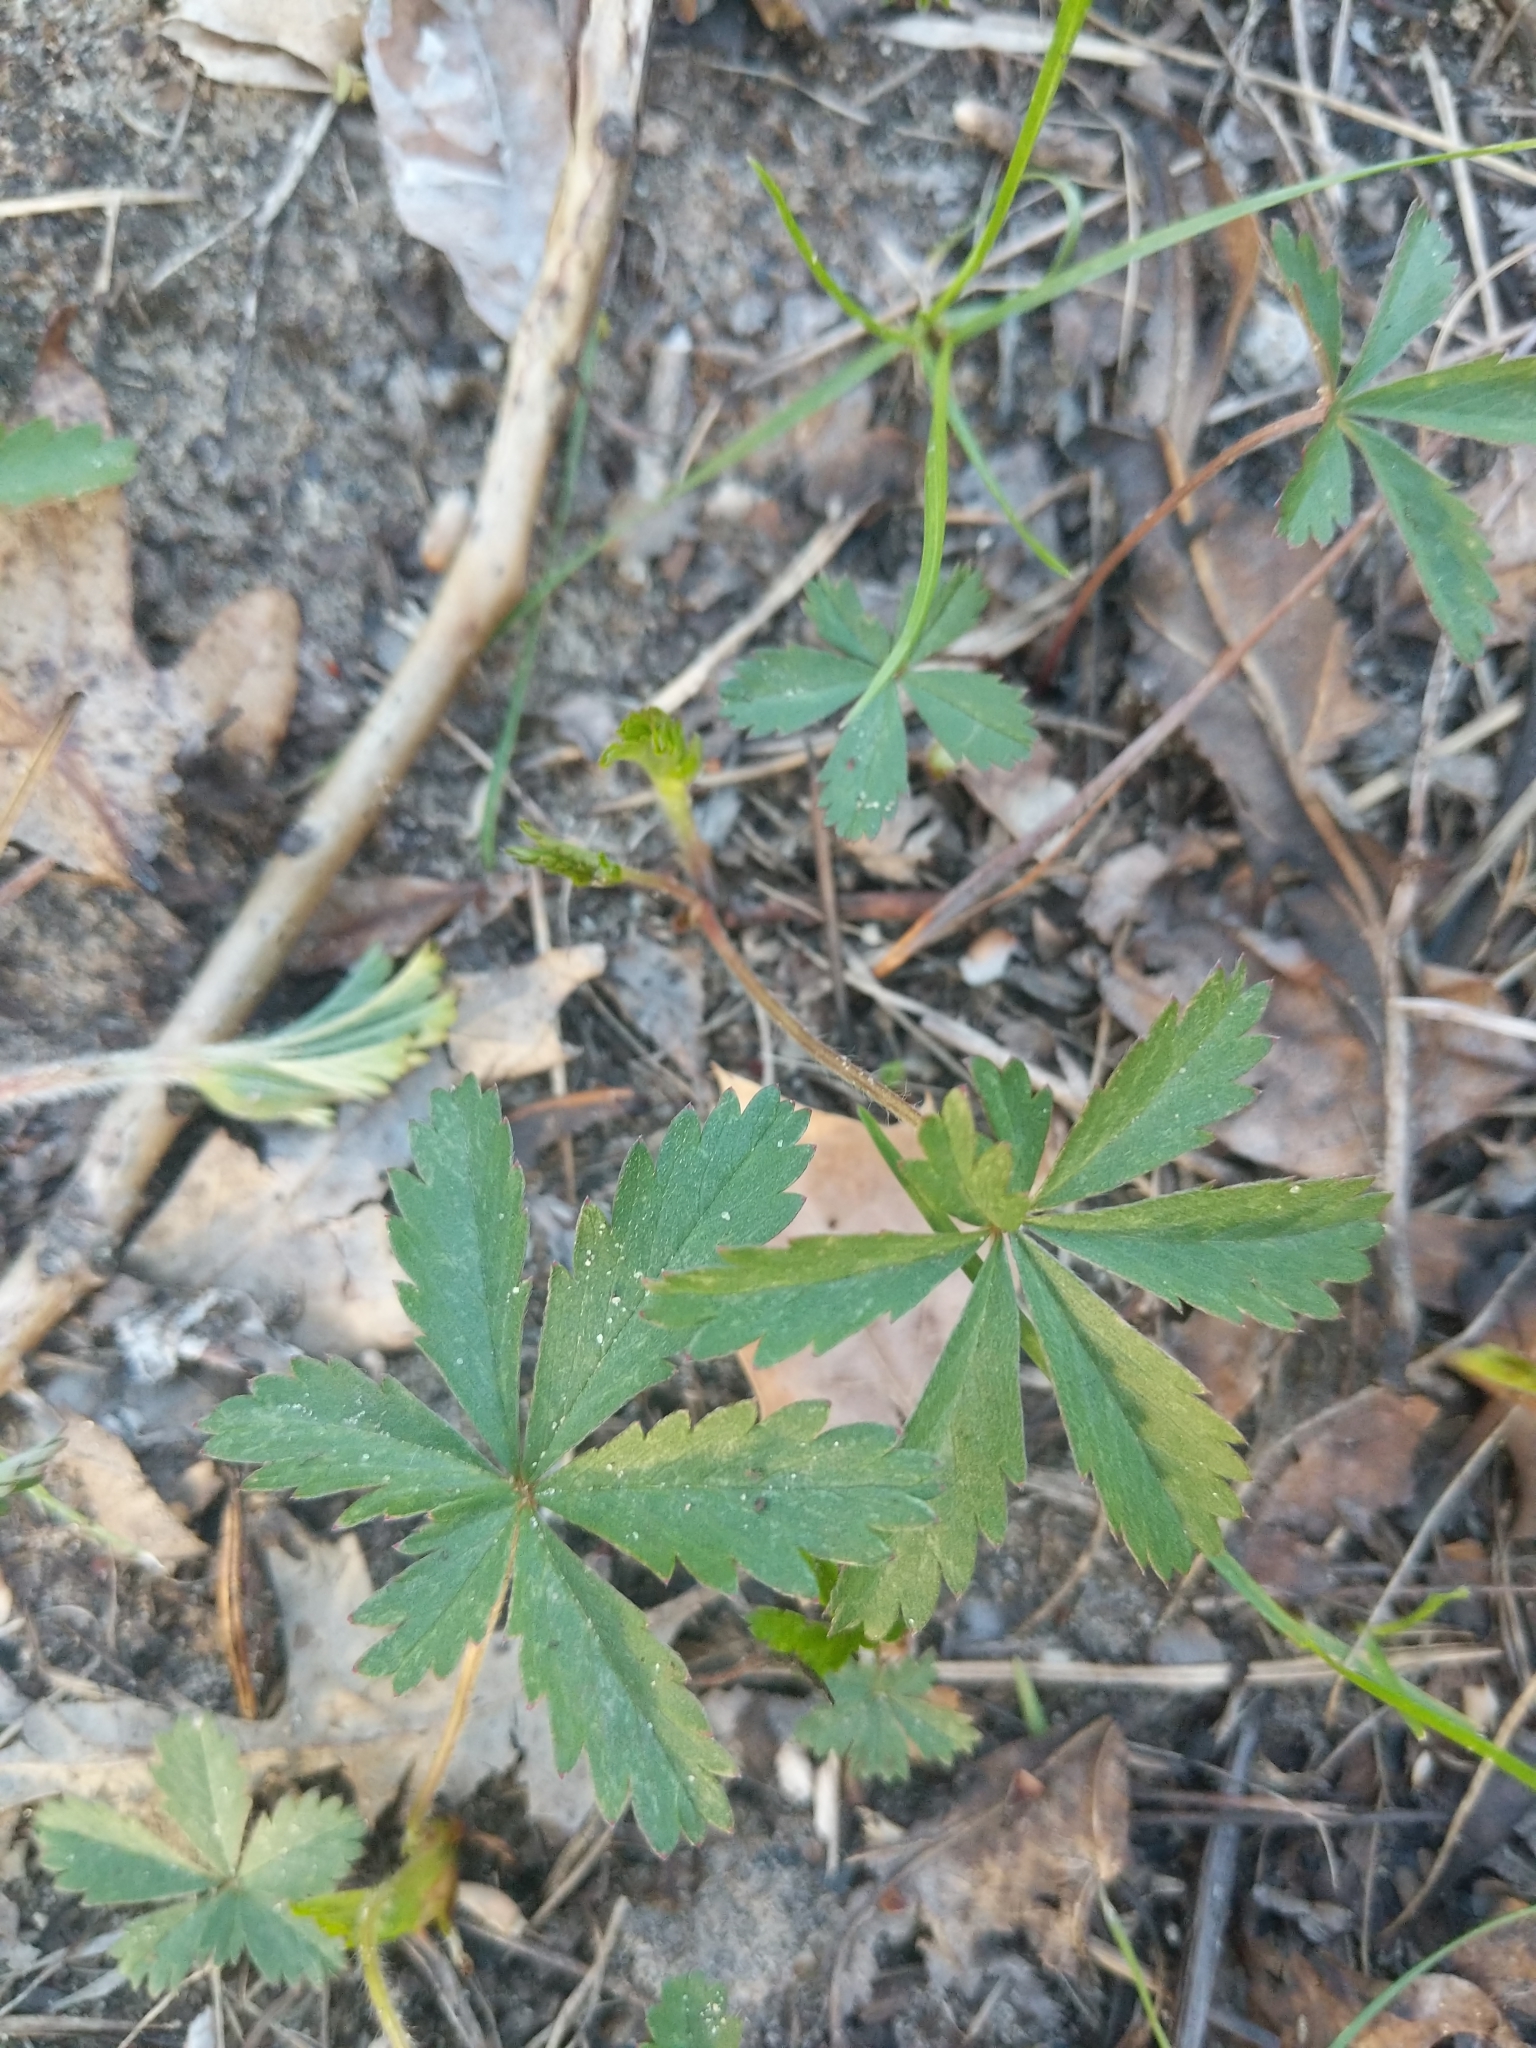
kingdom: Plantae
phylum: Tracheophyta
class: Magnoliopsida
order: Rosales
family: Rosaceae
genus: Potentilla
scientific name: Potentilla simplex
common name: Old field cinquefoil
